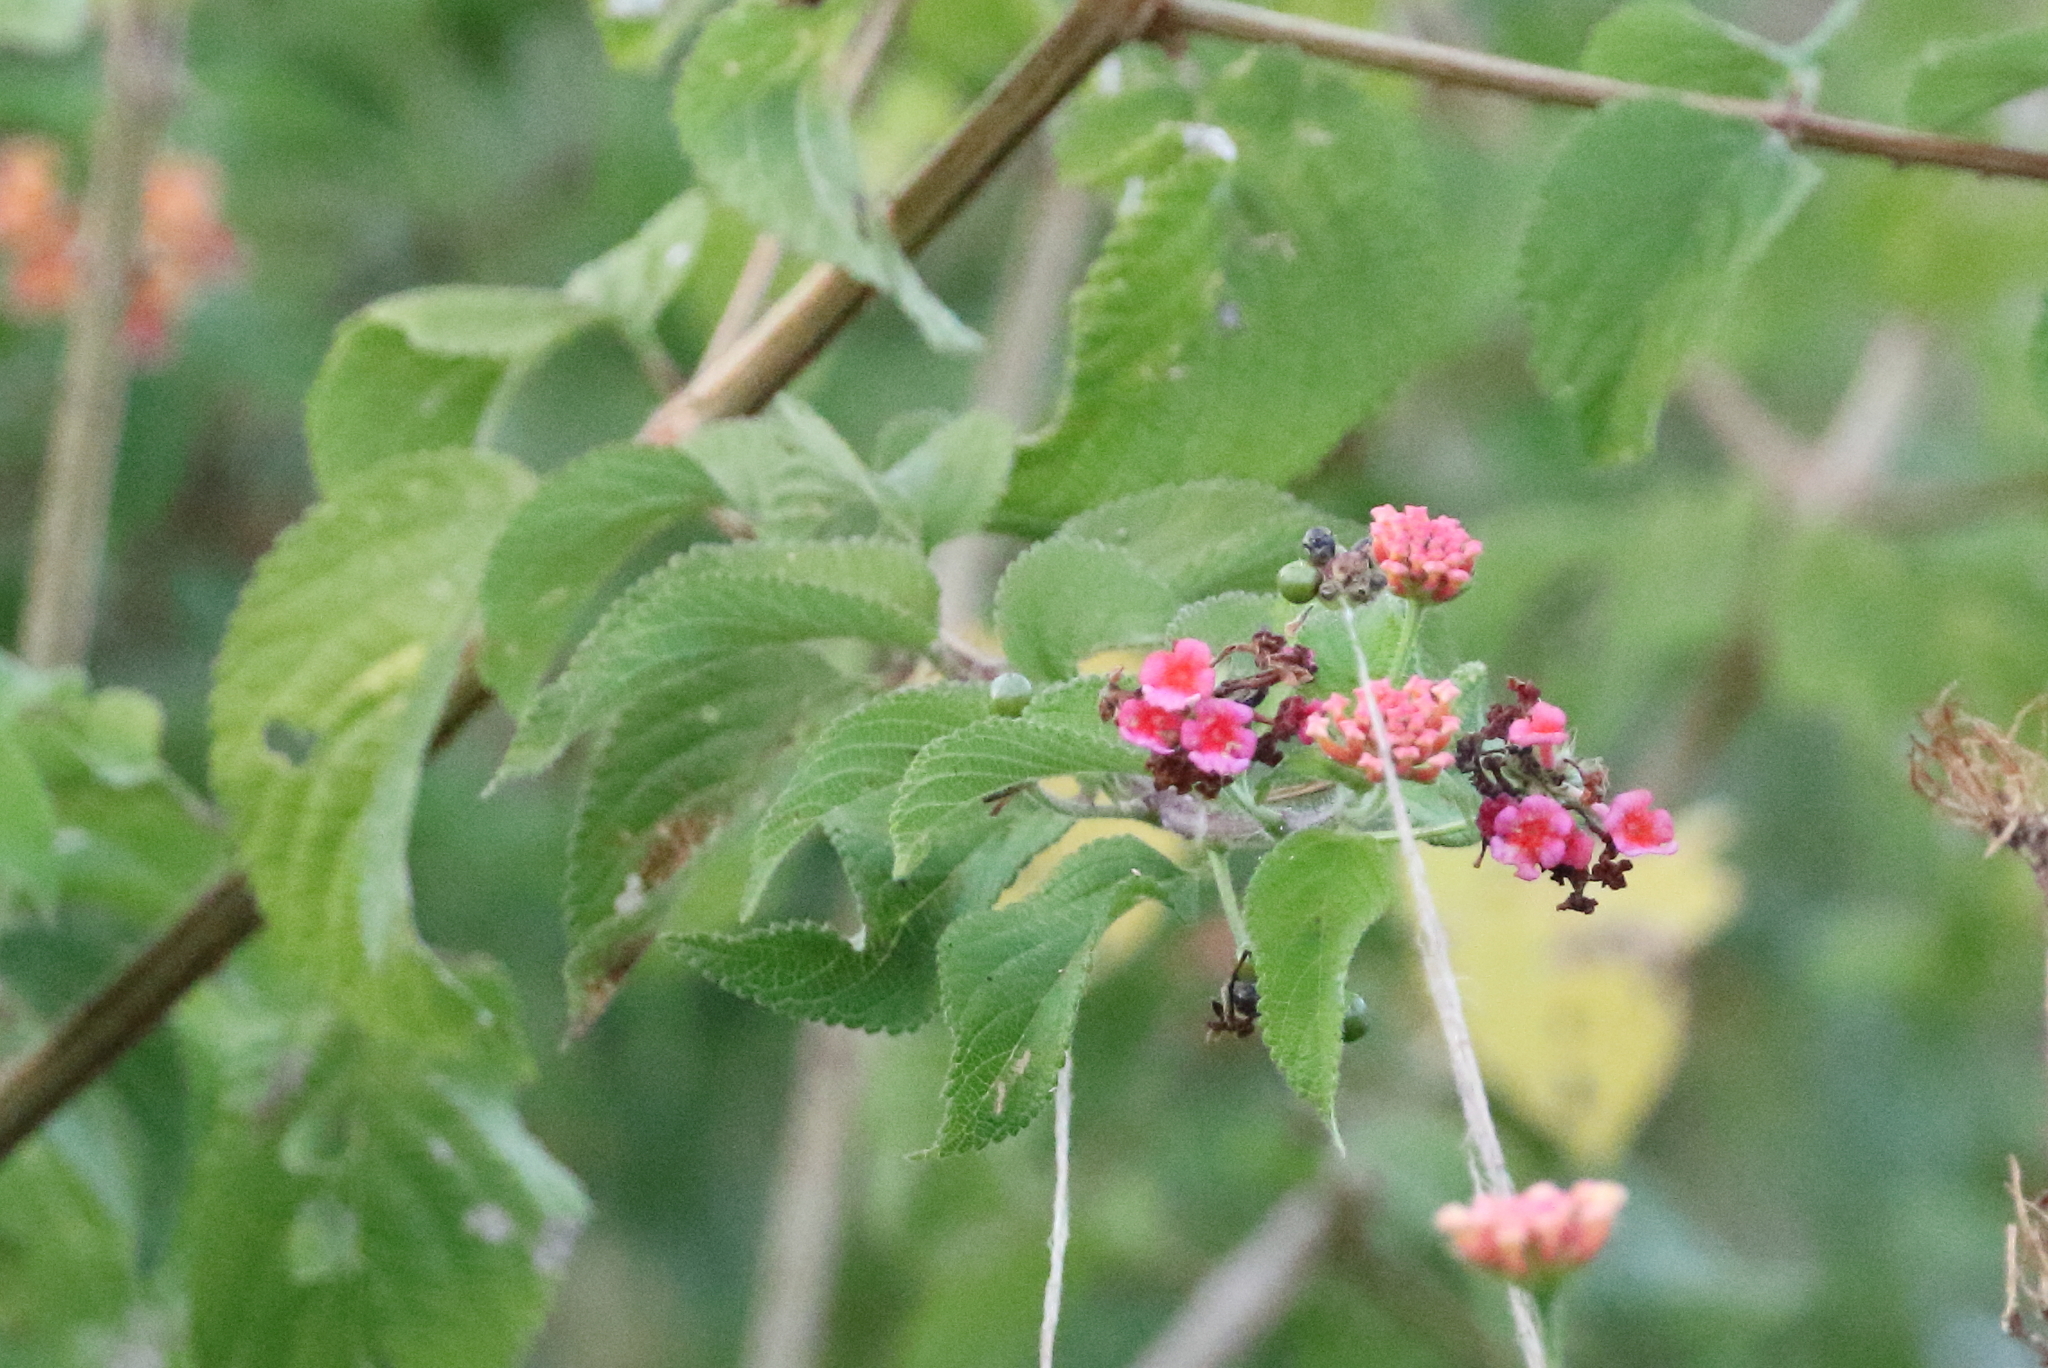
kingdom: Plantae
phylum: Tracheophyta
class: Magnoliopsida
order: Lamiales
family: Verbenaceae
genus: Lantana
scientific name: Lantana camara
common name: Lantana
